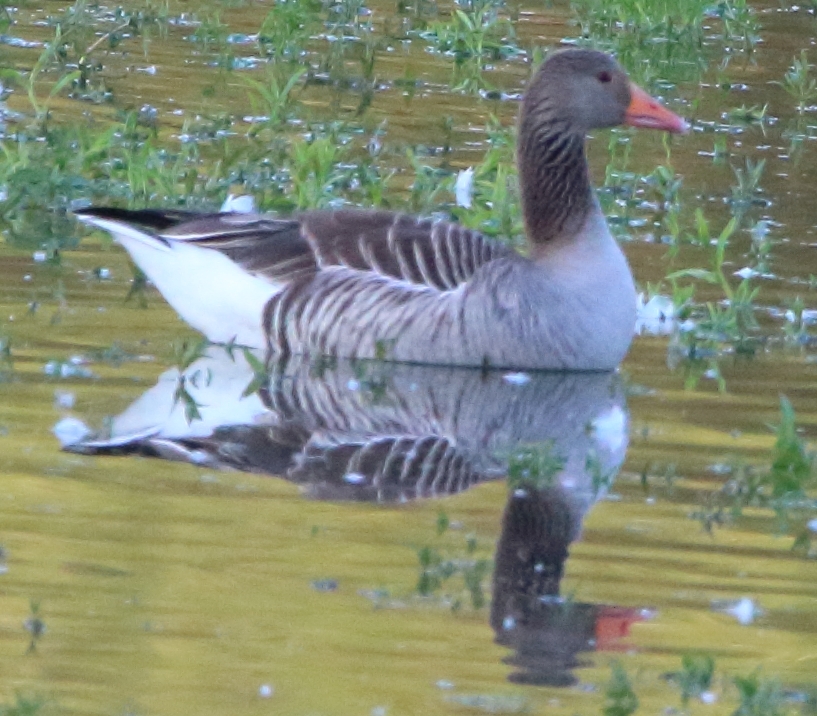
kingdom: Animalia
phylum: Chordata
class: Aves
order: Anseriformes
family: Anatidae
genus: Anser
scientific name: Anser anser
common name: Greylag goose
